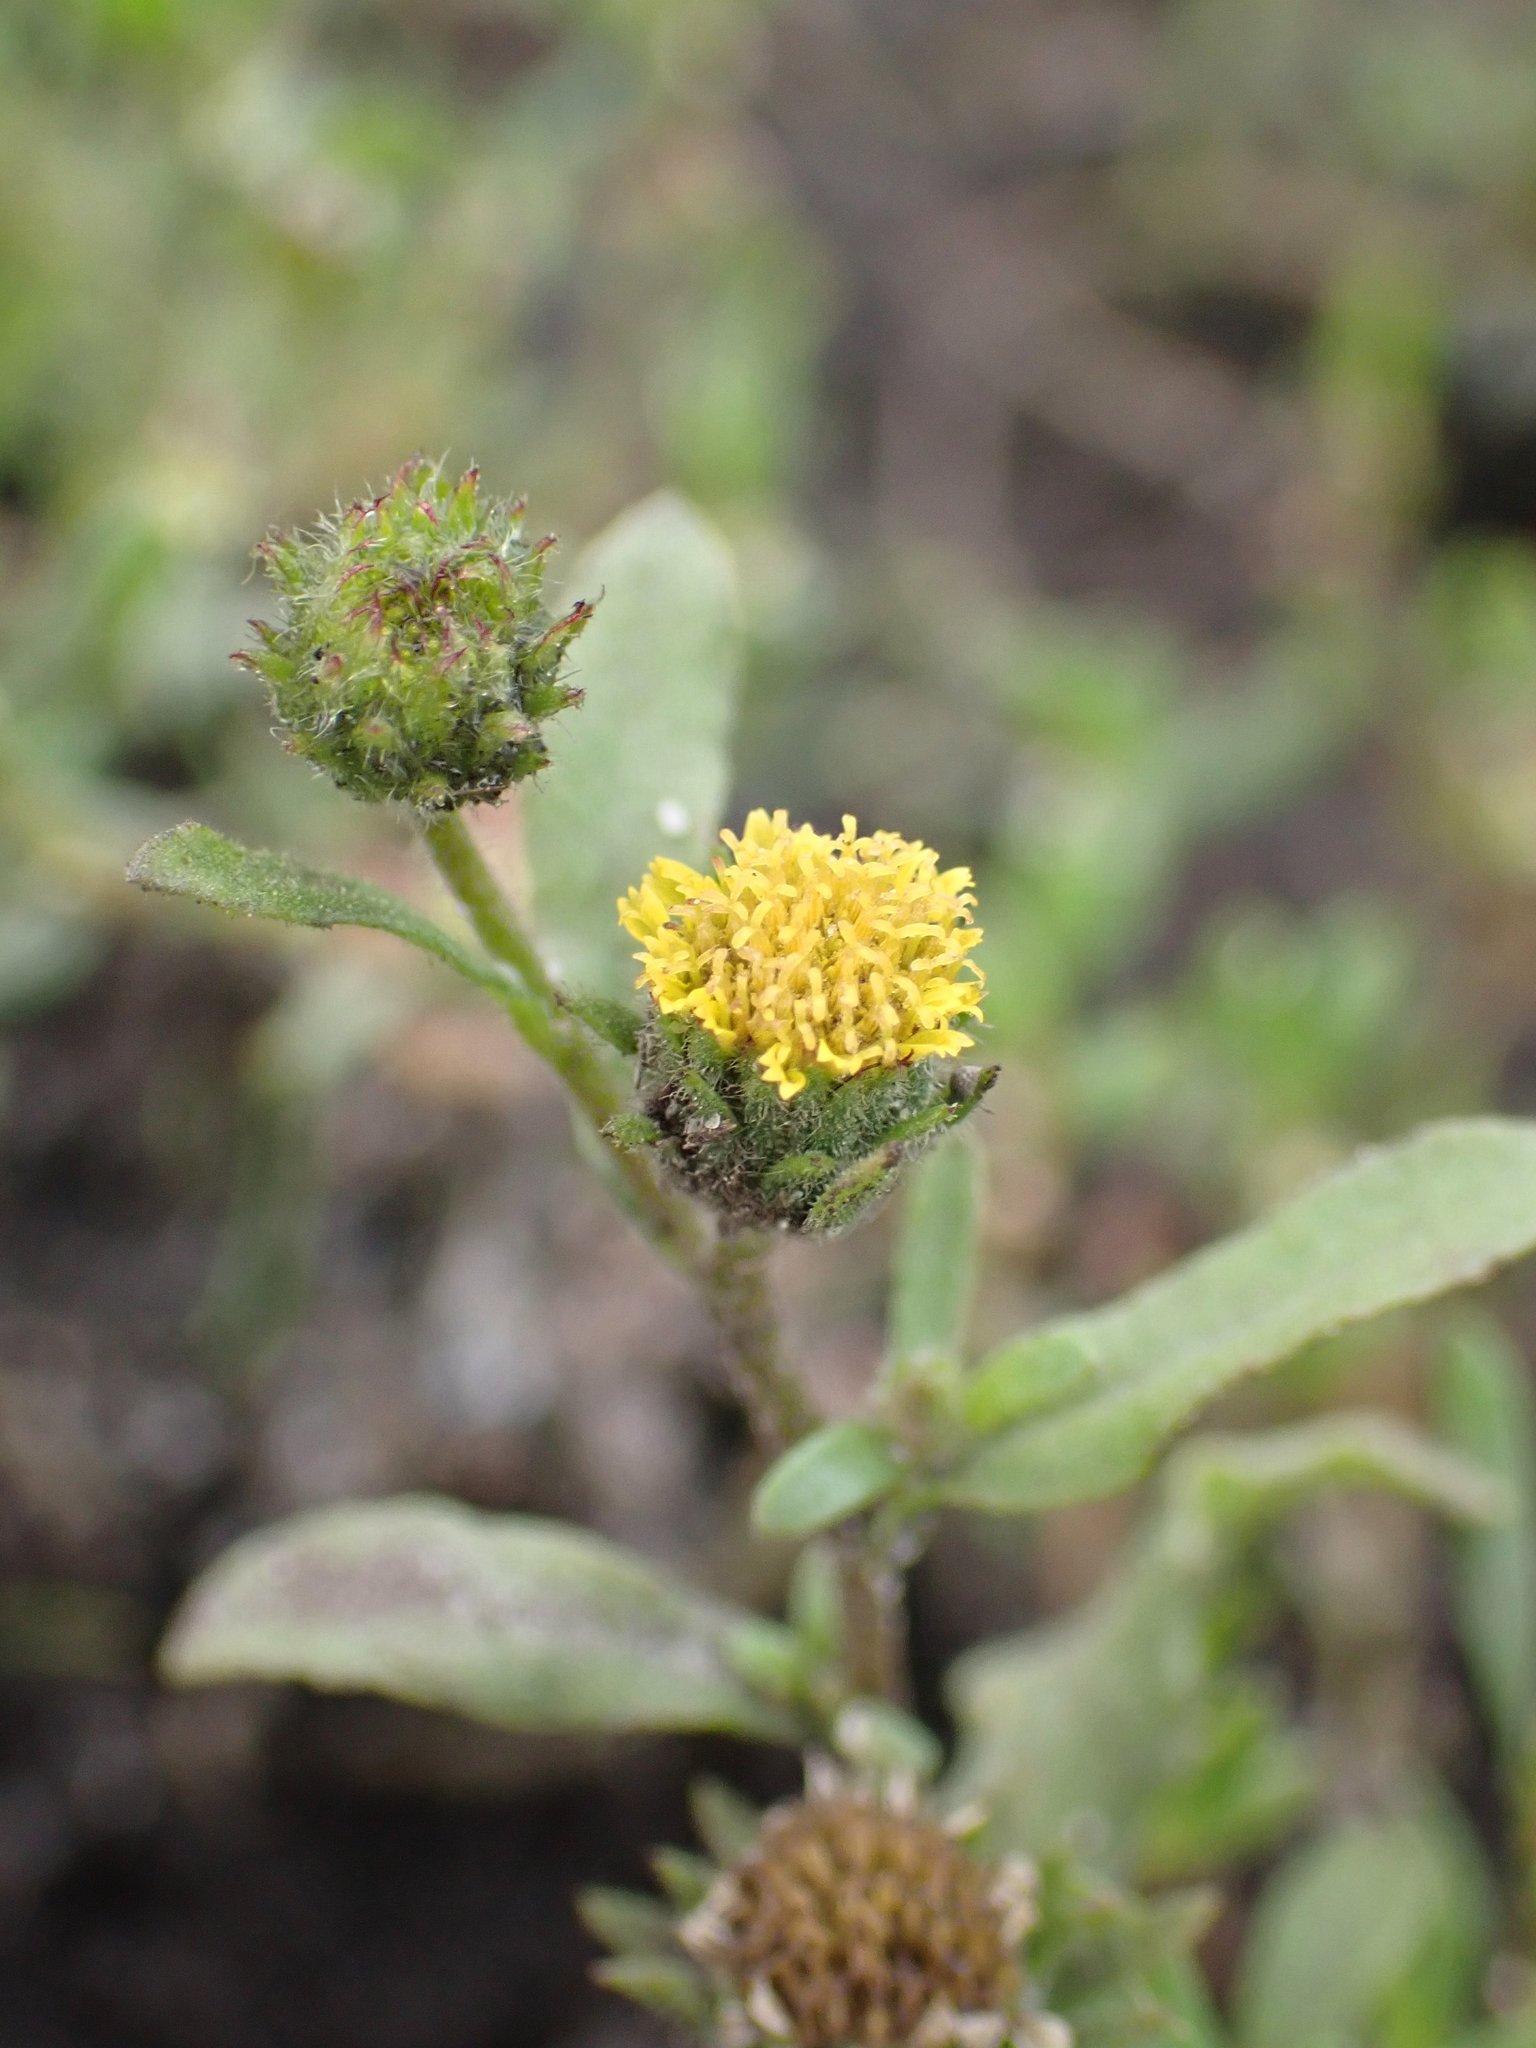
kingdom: Plantae
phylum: Tracheophyta
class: Magnoliopsida
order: Asterales
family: Asteraceae
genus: Pulicaria
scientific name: Pulicaria vulgaris
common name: Small fleabane
